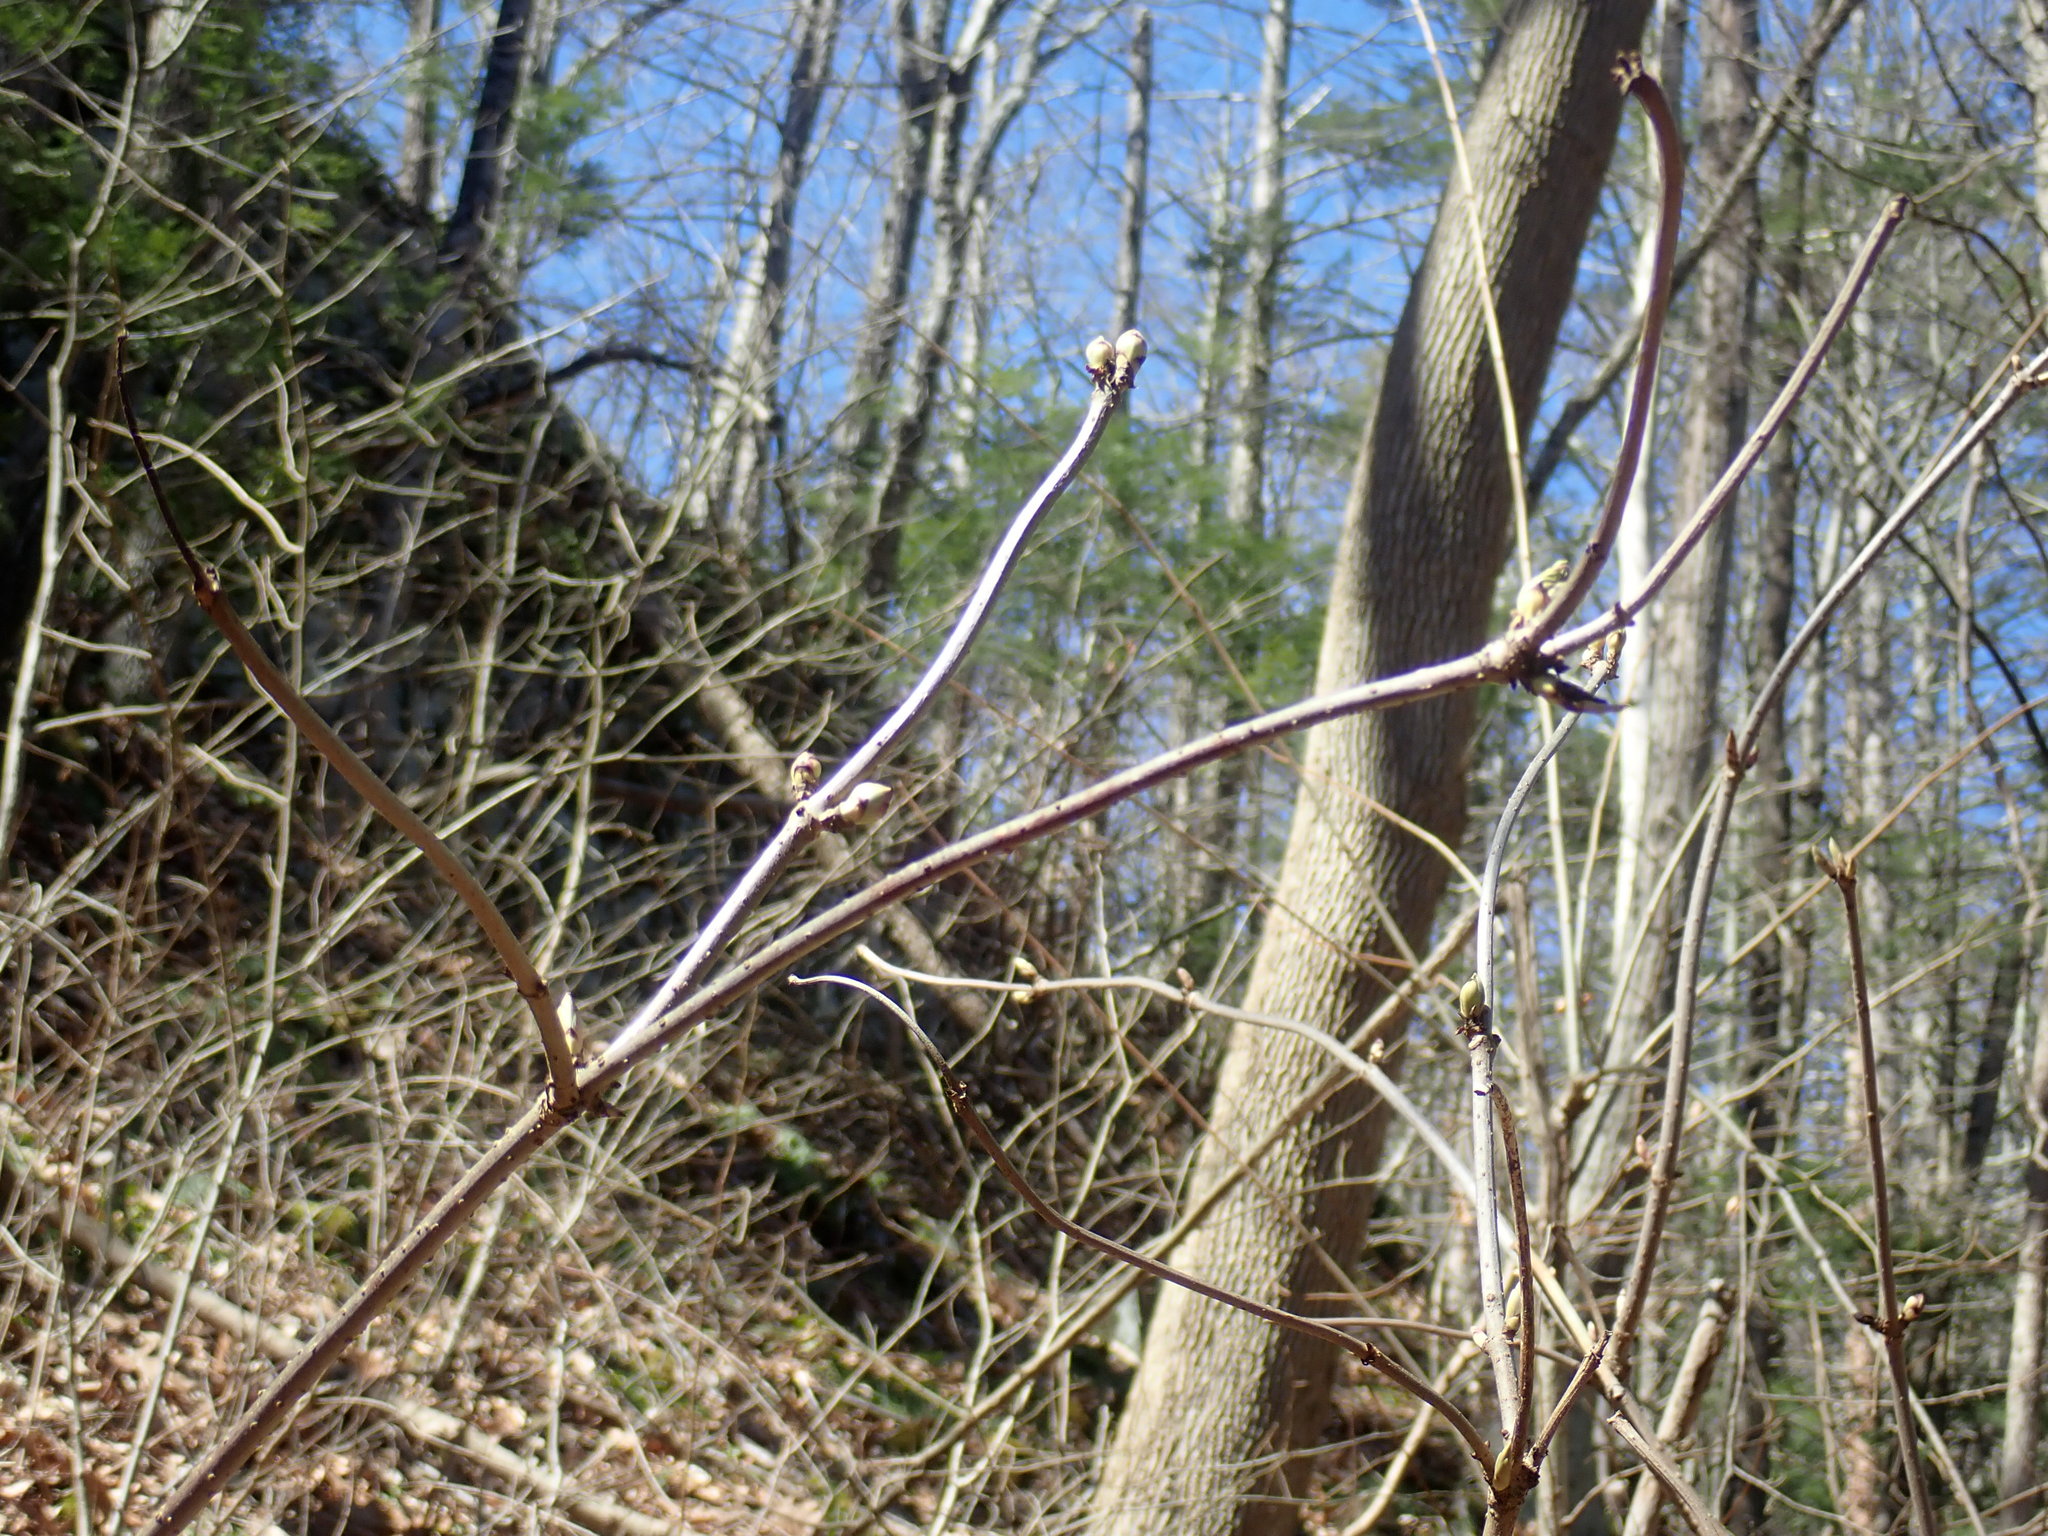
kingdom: Plantae
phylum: Tracheophyta
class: Magnoliopsida
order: Dipsacales
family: Viburnaceae
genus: Sambucus
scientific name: Sambucus racemosa
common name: Red-berried elder
